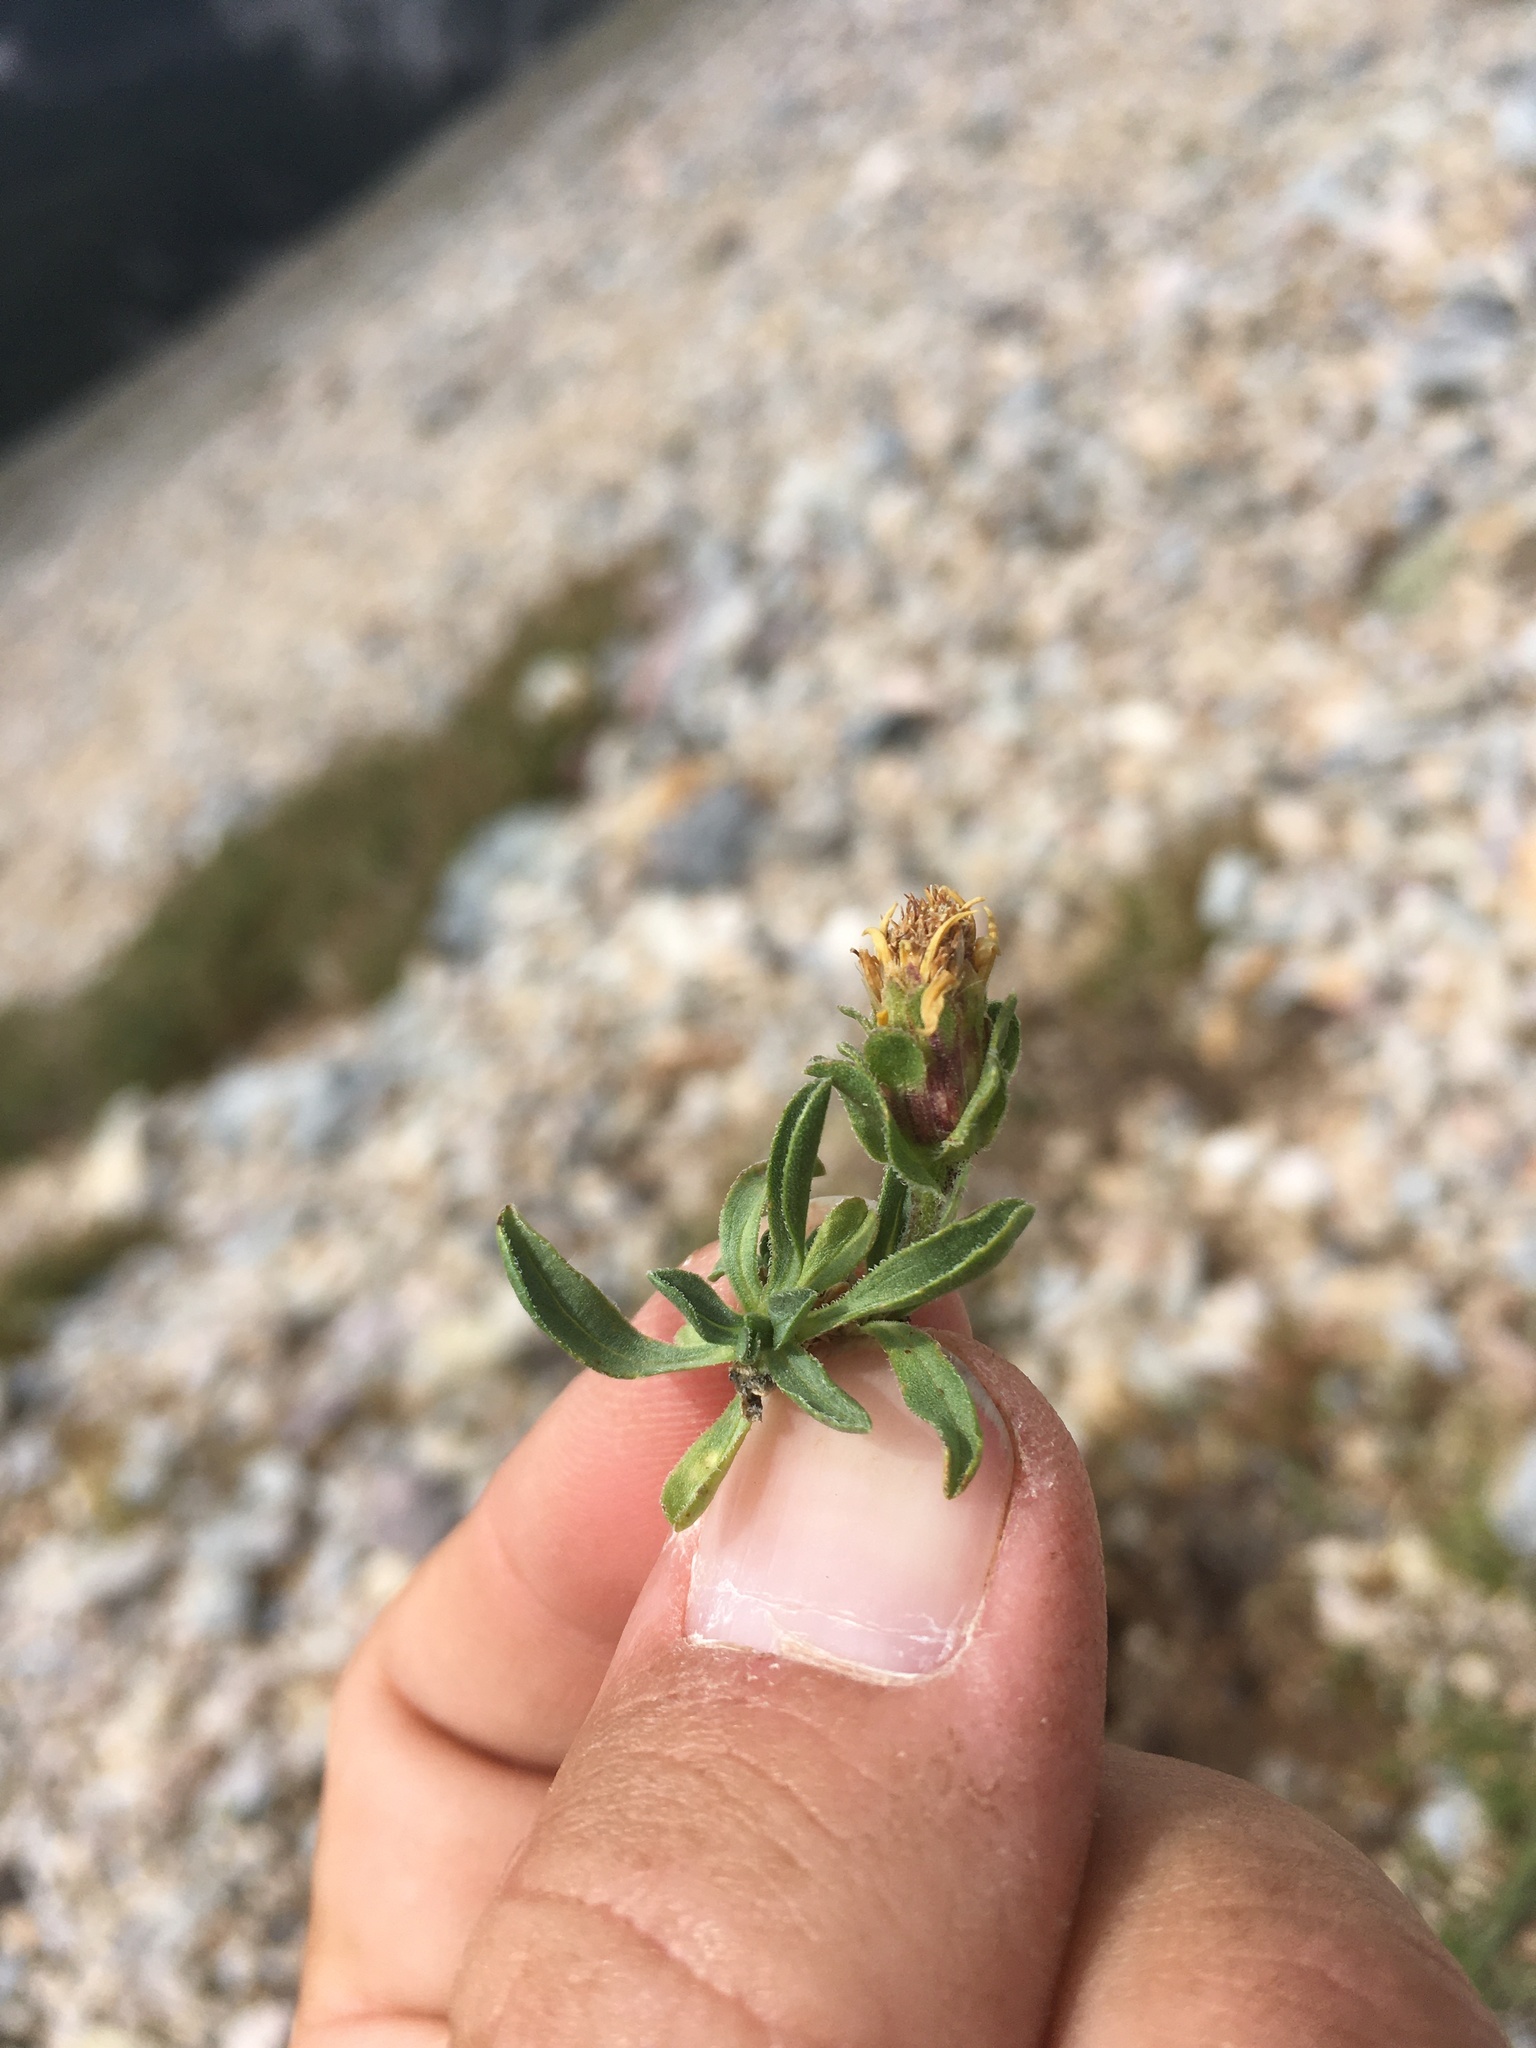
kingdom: Plantae
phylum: Tracheophyta
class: Magnoliopsida
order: Asterales
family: Asteraceae
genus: Tonestus
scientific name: Tonestus pygmaeus
